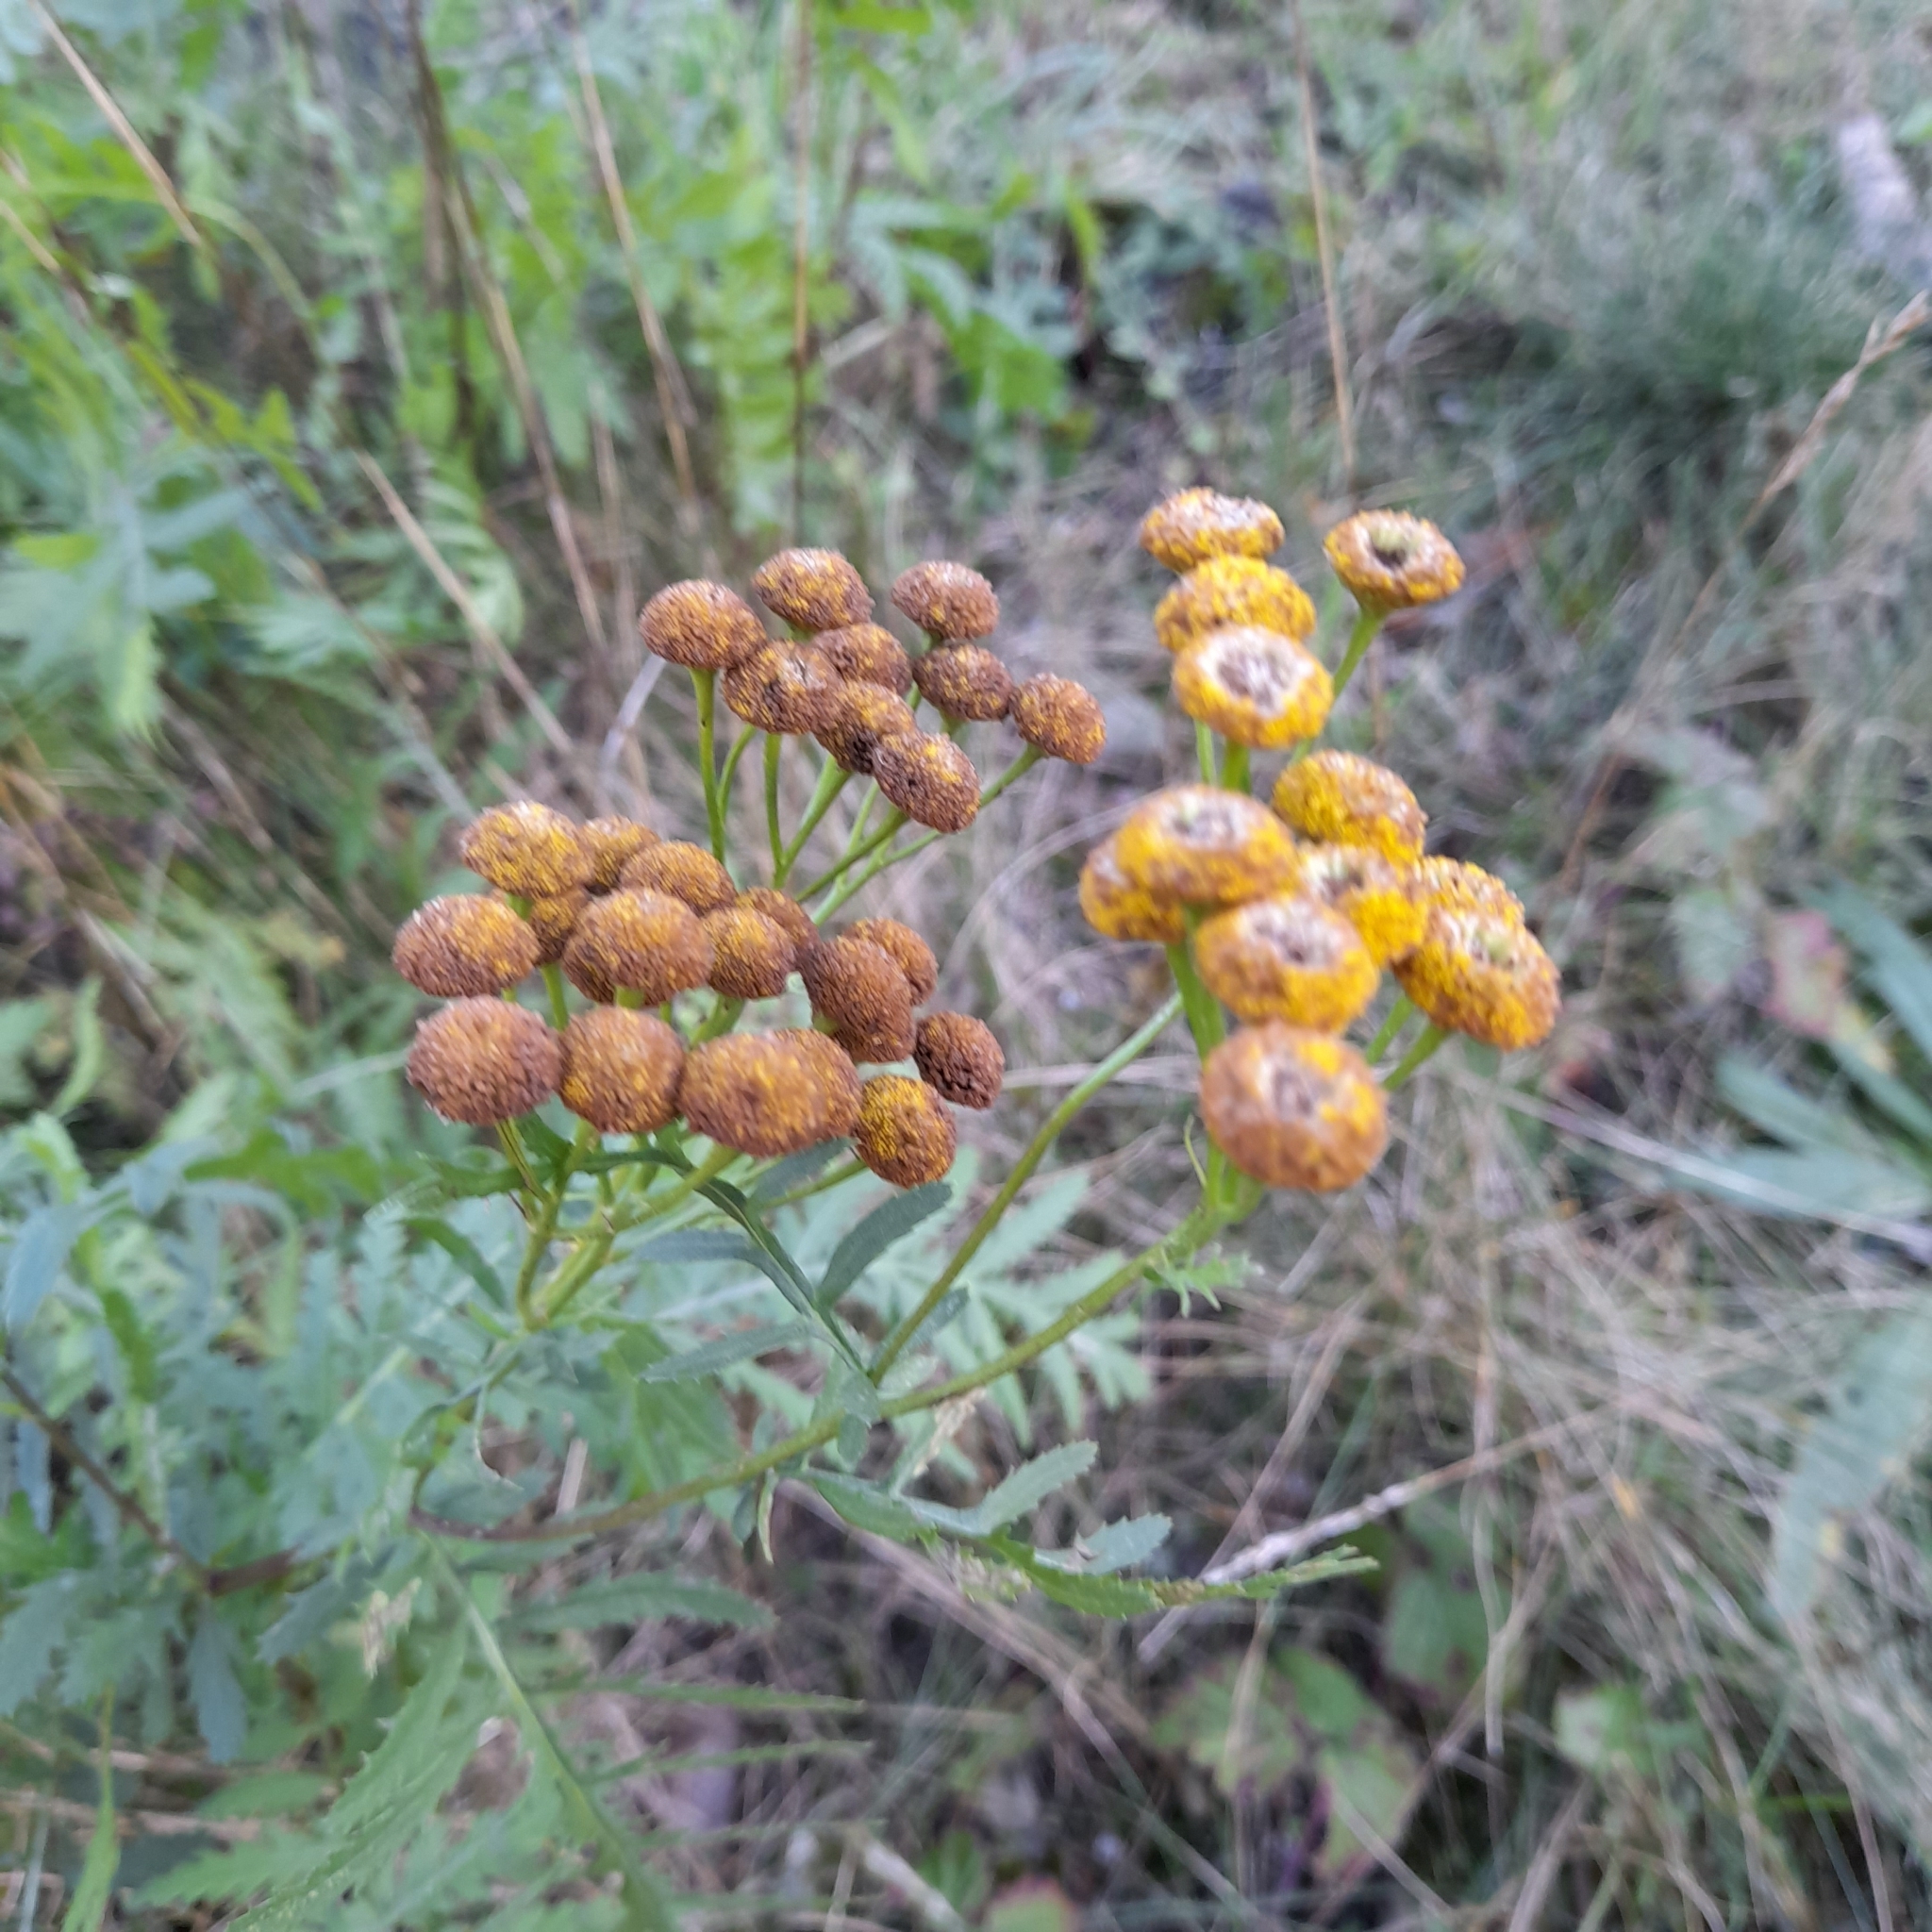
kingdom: Plantae
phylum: Tracheophyta
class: Magnoliopsida
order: Asterales
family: Asteraceae
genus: Tanacetum
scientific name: Tanacetum vulgare
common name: Common tansy
